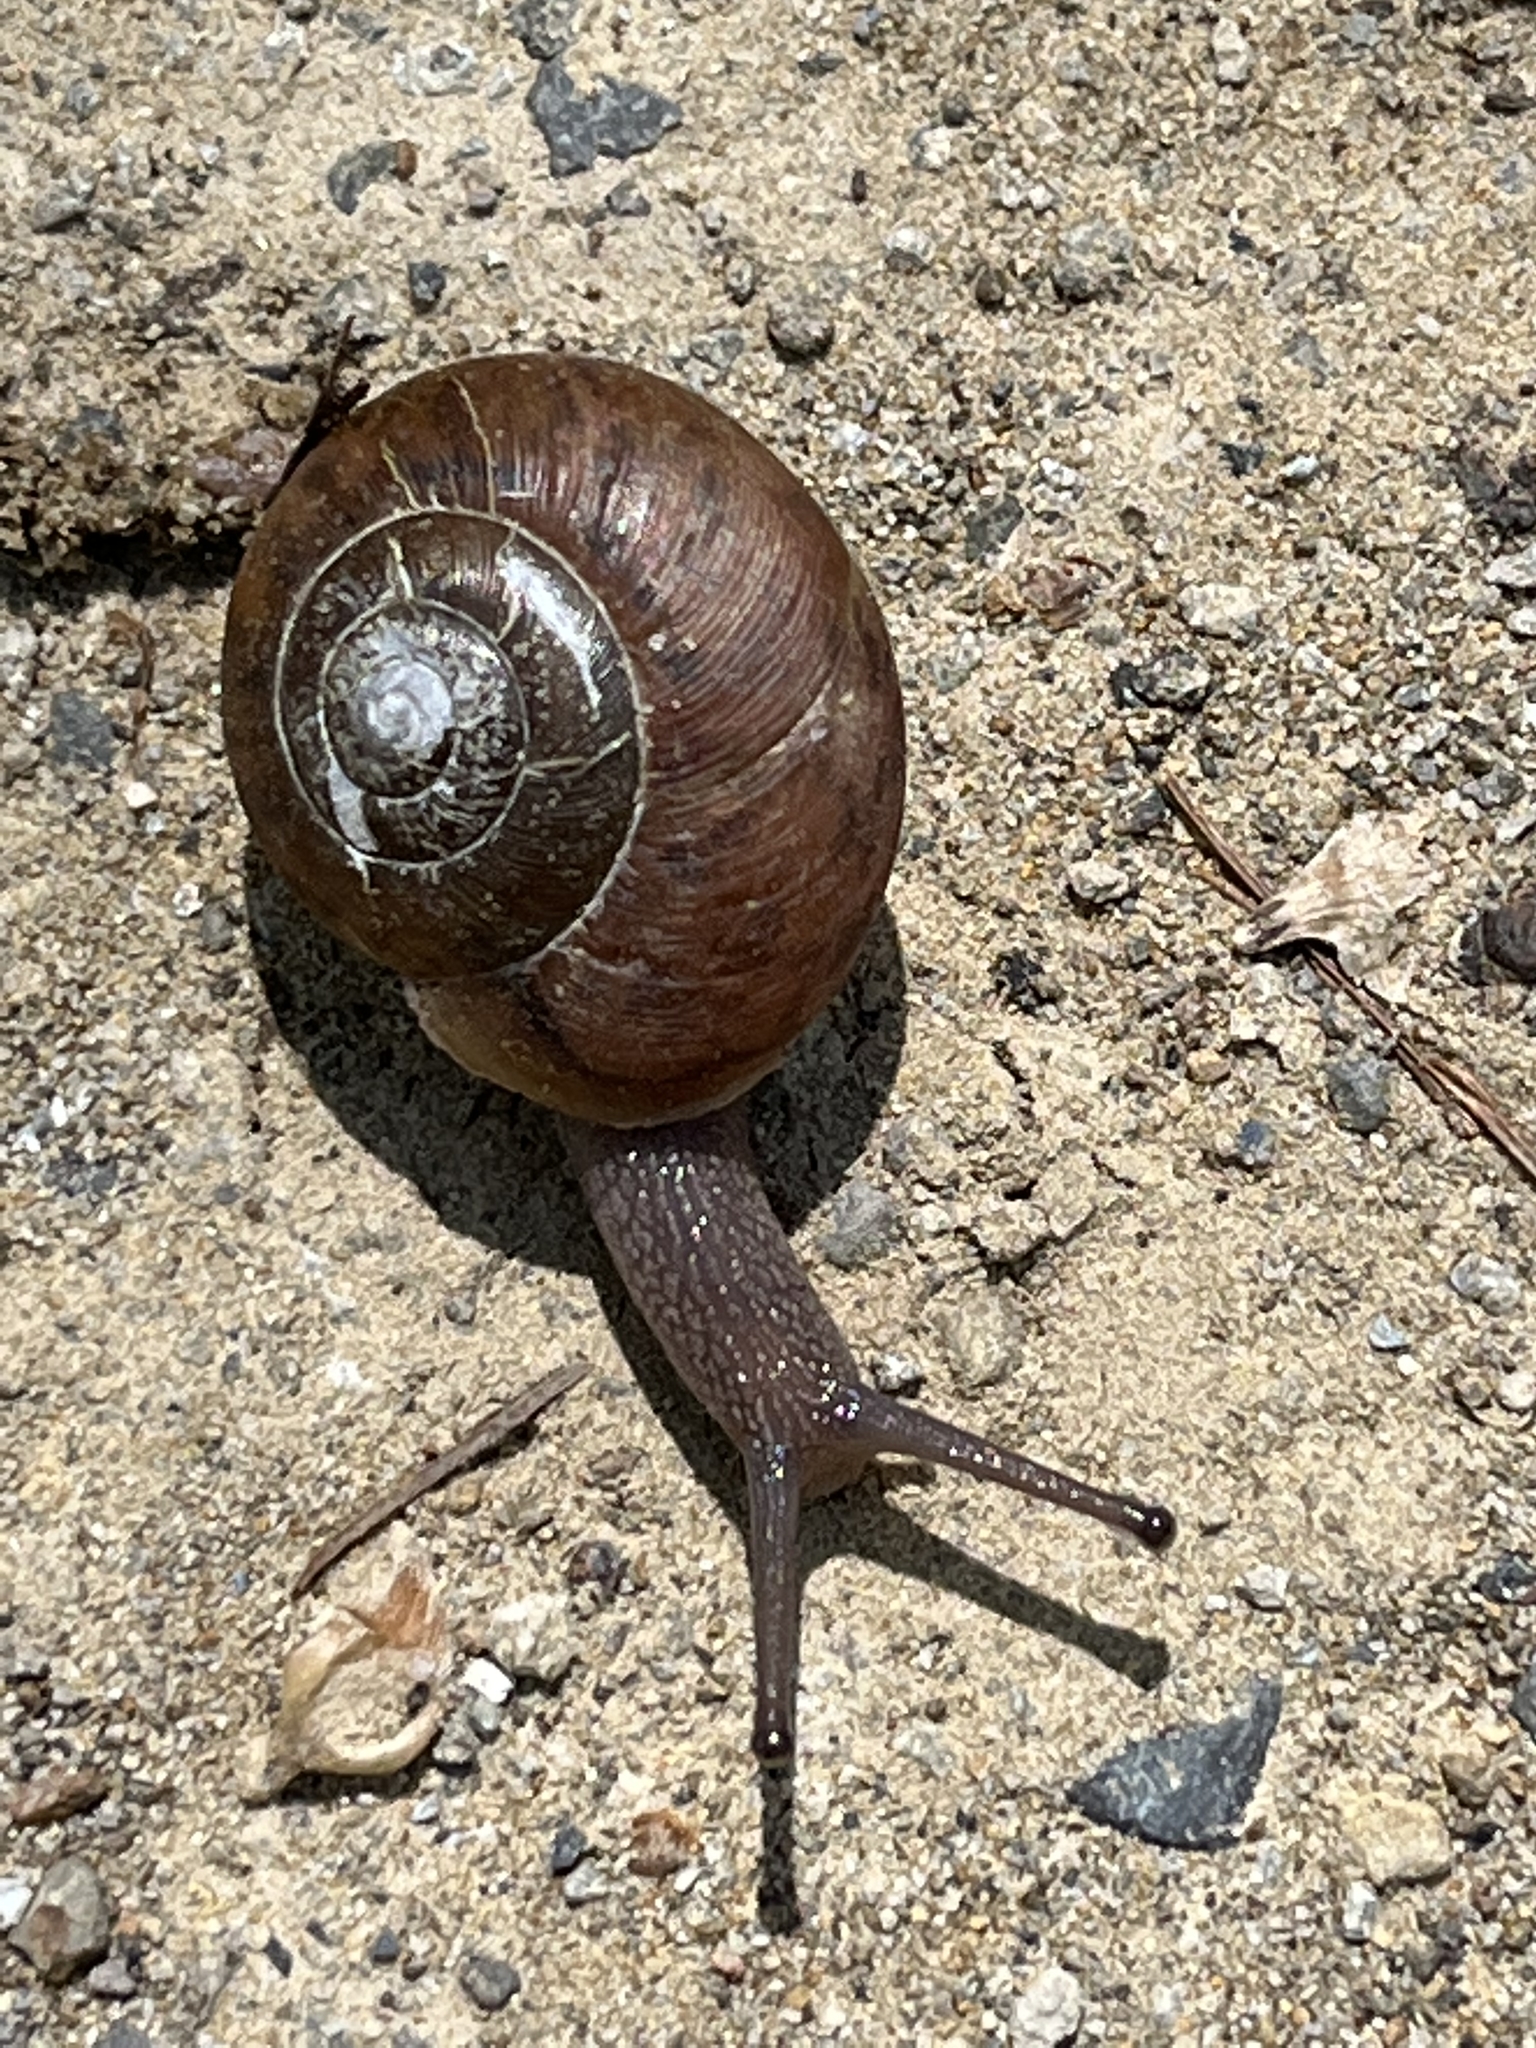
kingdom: Animalia
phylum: Mollusca
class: Gastropoda
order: Stylommatophora
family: Gastrodontidae
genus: Mesomphix
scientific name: Mesomphix perlaevis
